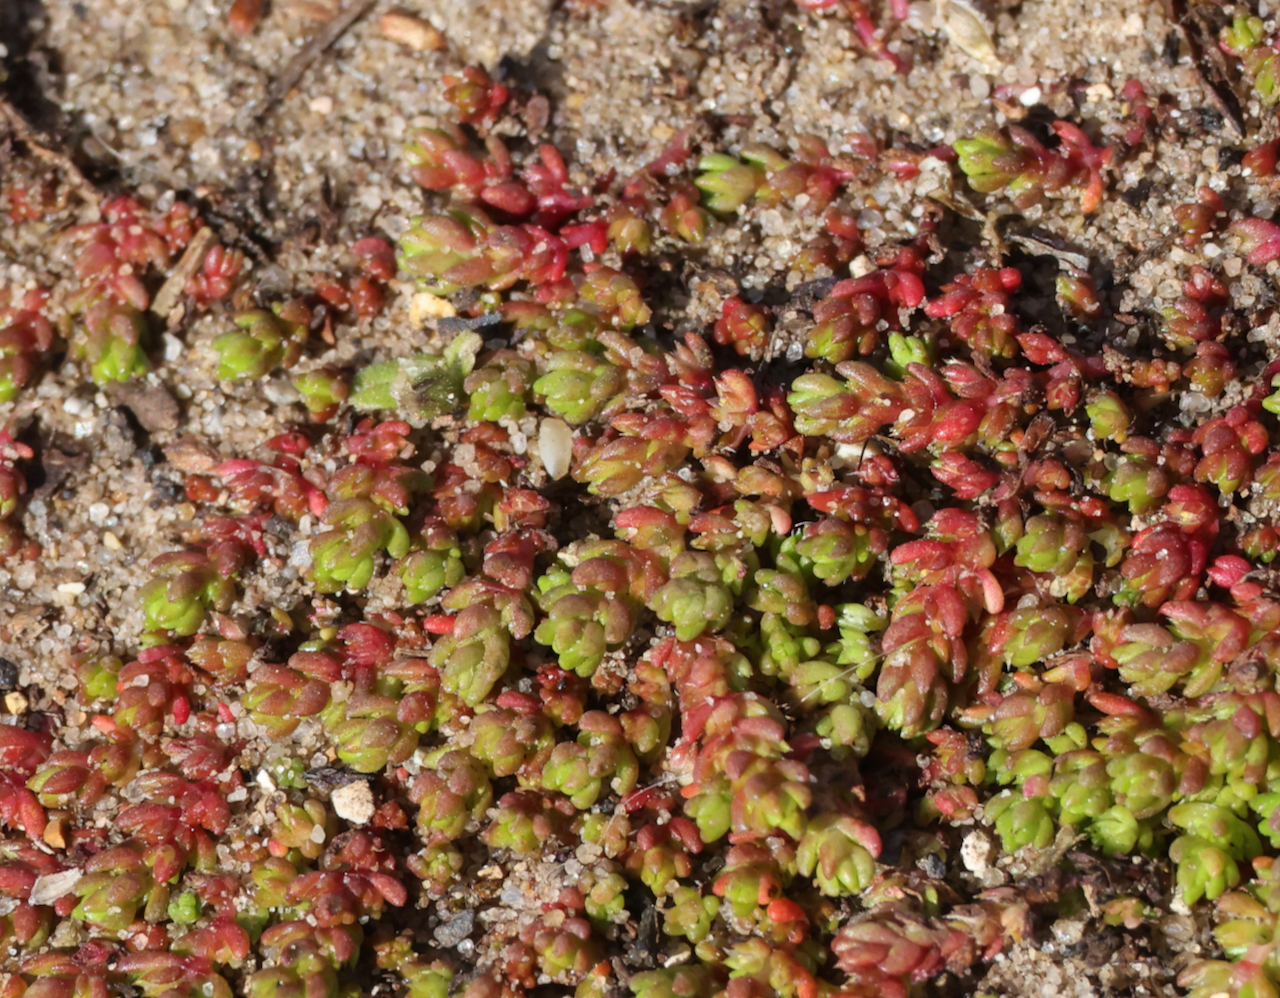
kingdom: Plantae
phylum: Tracheophyta
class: Magnoliopsida
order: Saxifragales
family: Crassulaceae
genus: Crassula
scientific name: Crassula tillaea
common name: Mossy stonecrop
